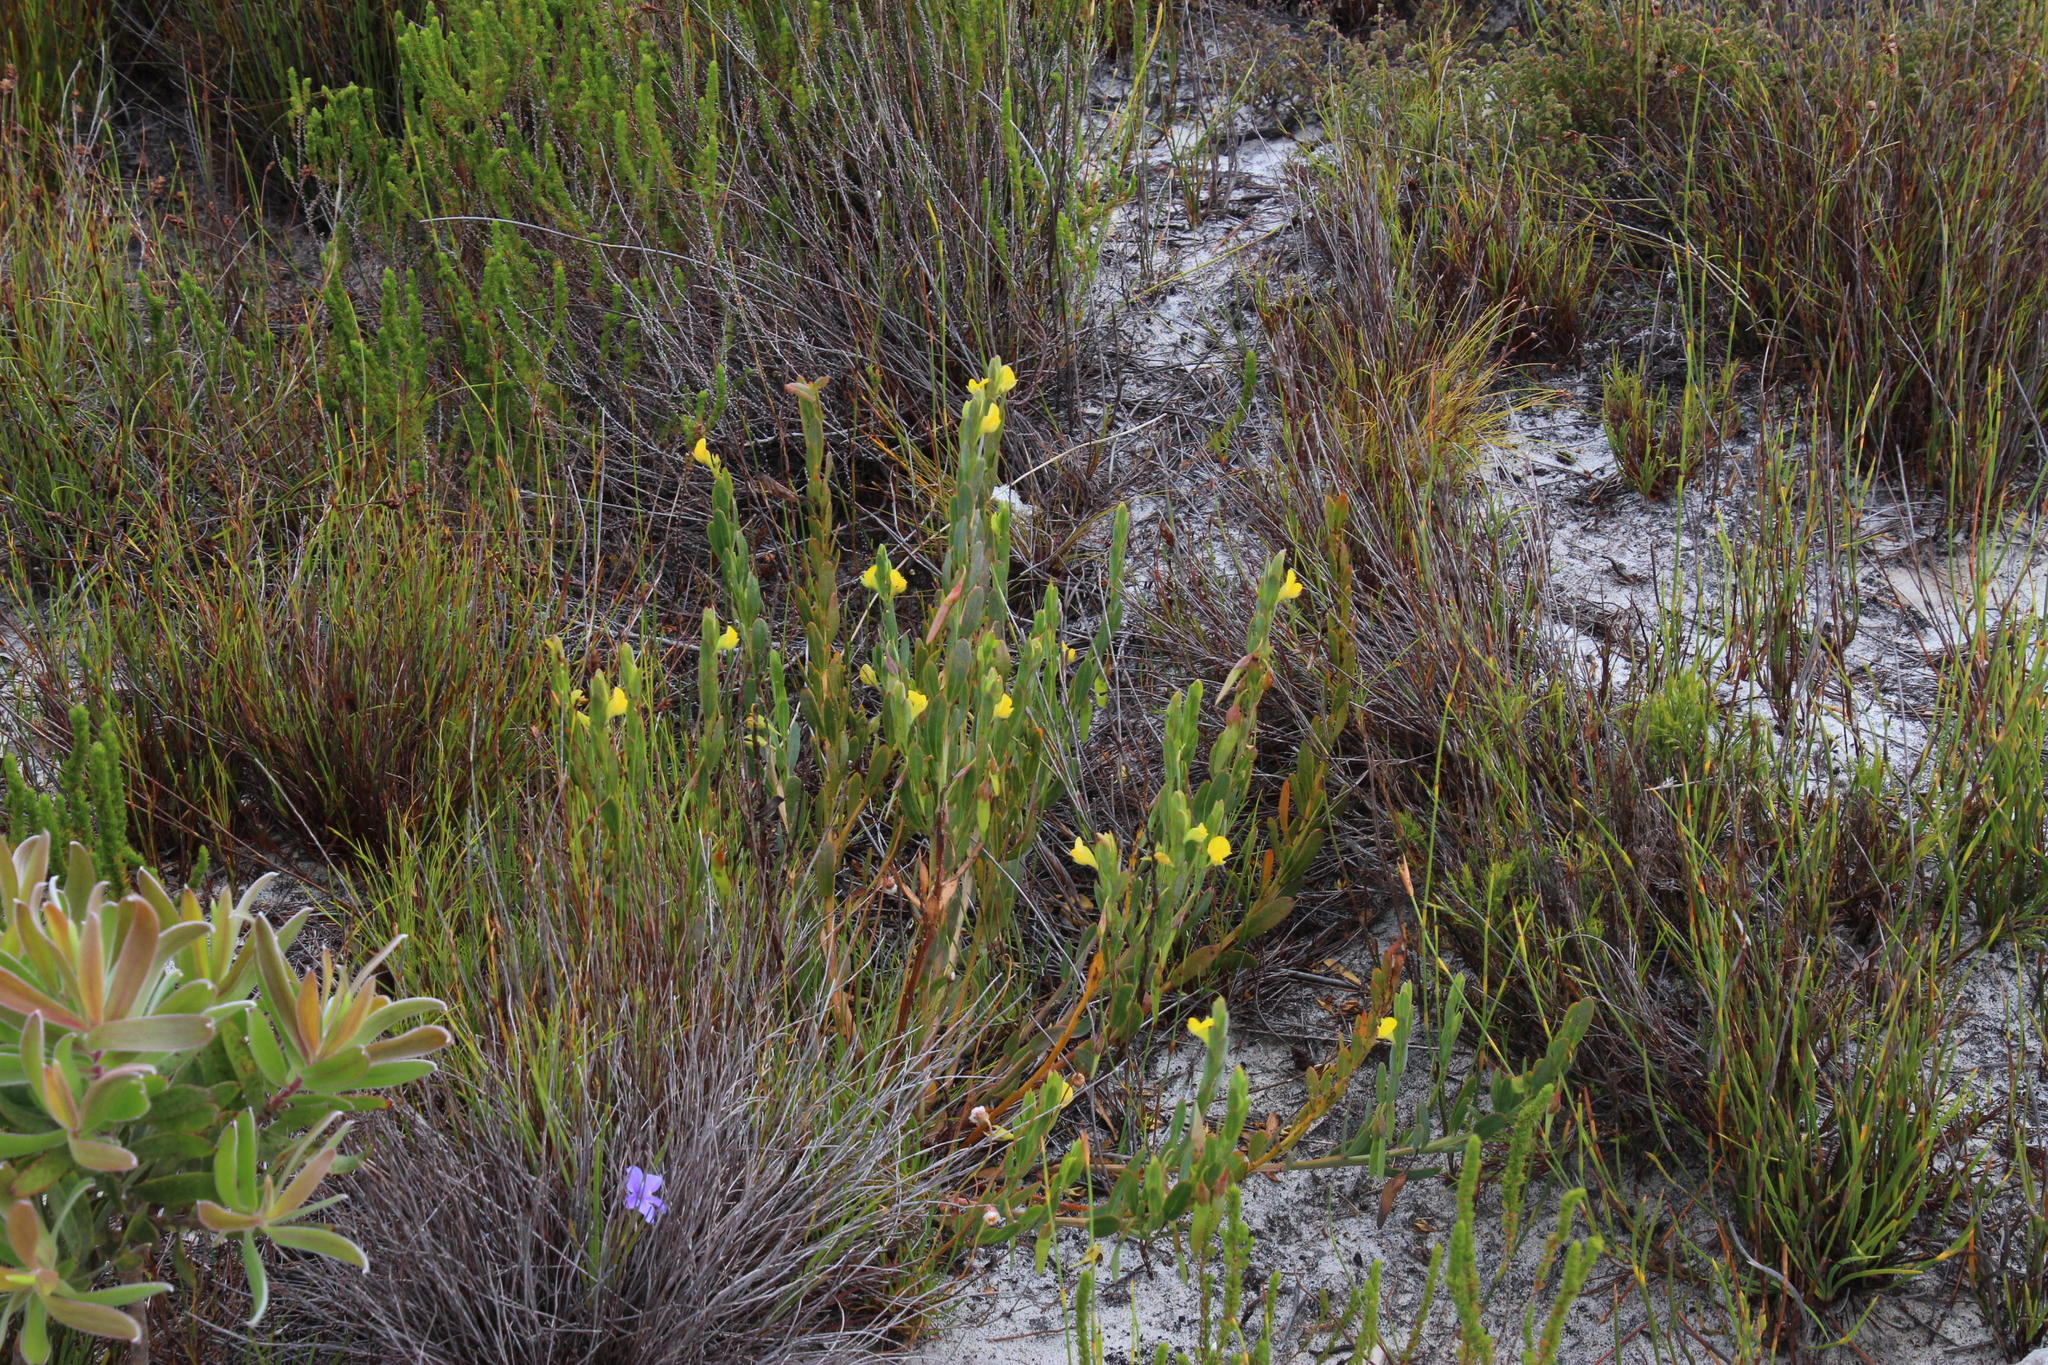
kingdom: Plantae
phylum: Tracheophyta
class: Magnoliopsida
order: Fabales
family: Fabaceae
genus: Rafnia
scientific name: Rafnia crassifolia
